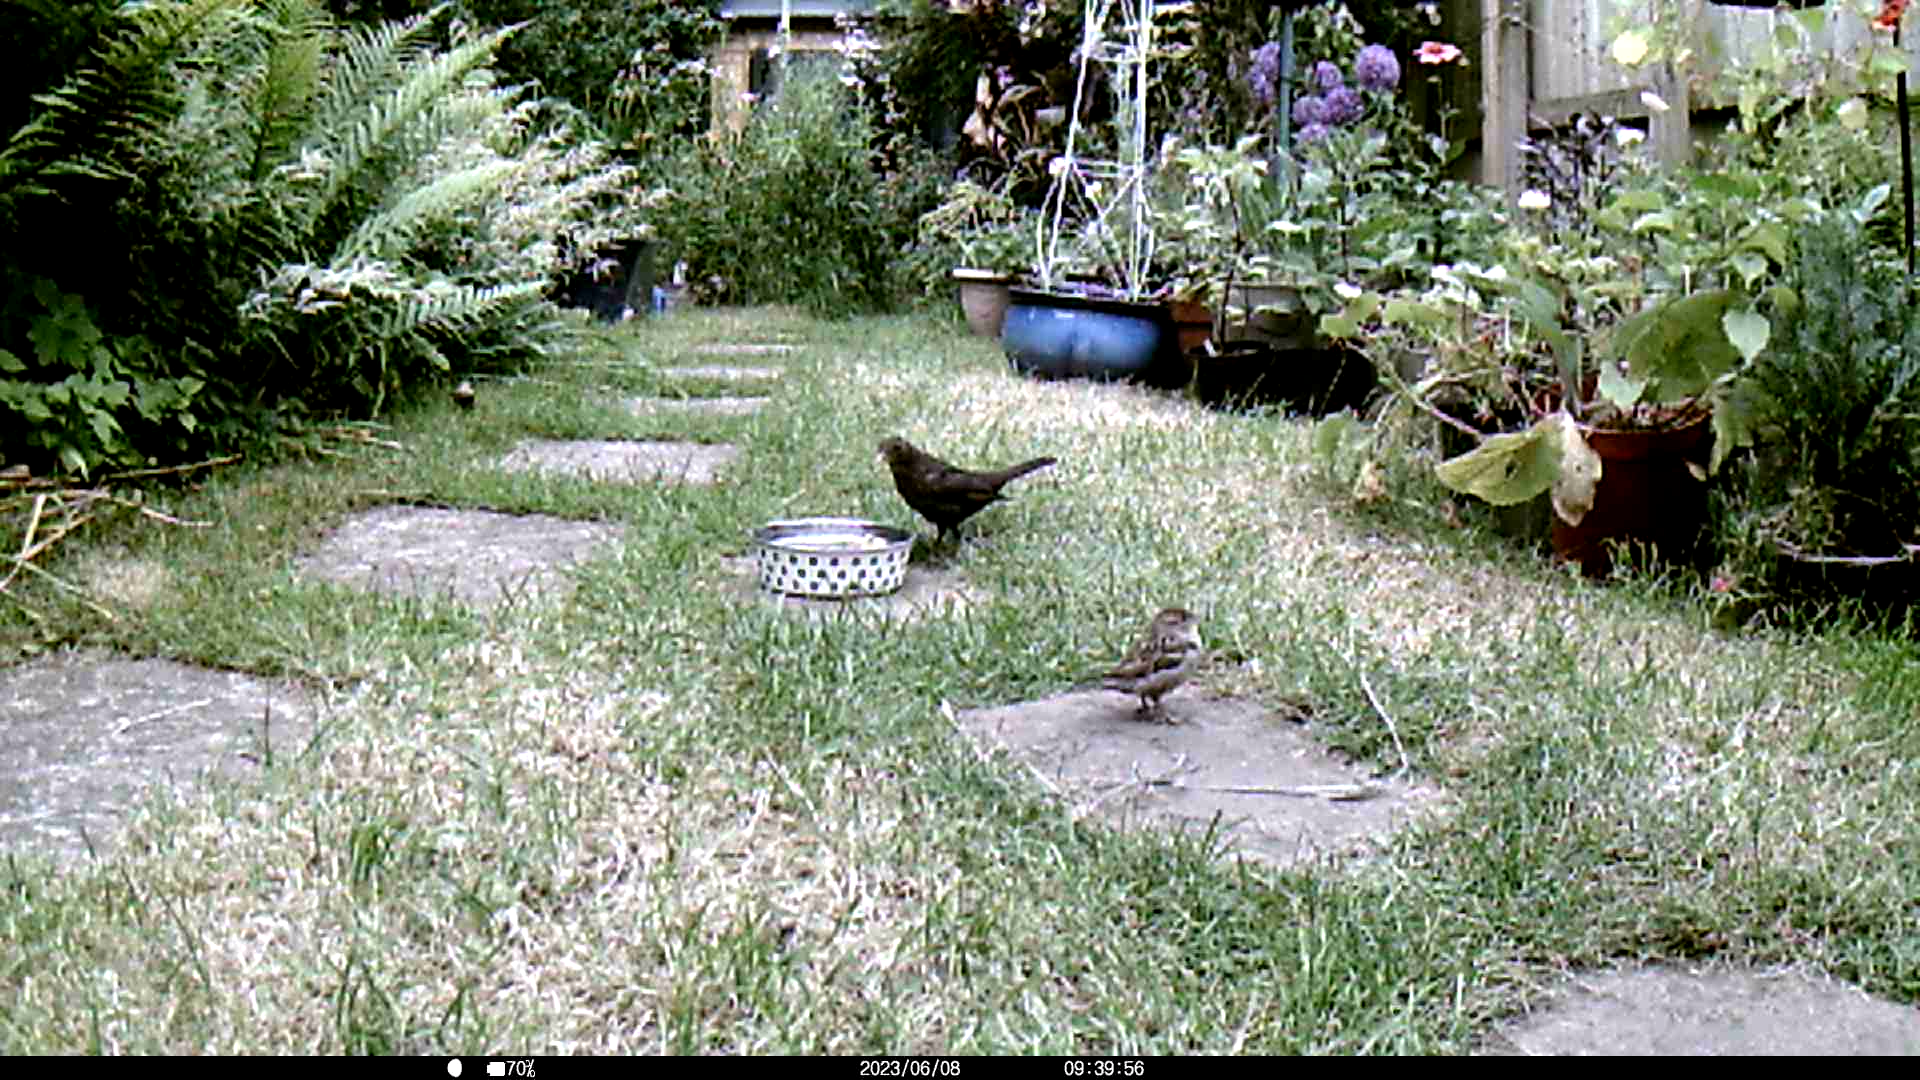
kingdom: Animalia
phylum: Chordata
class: Aves
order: Passeriformes
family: Turdidae
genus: Turdus
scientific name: Turdus merula
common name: Common blackbird
